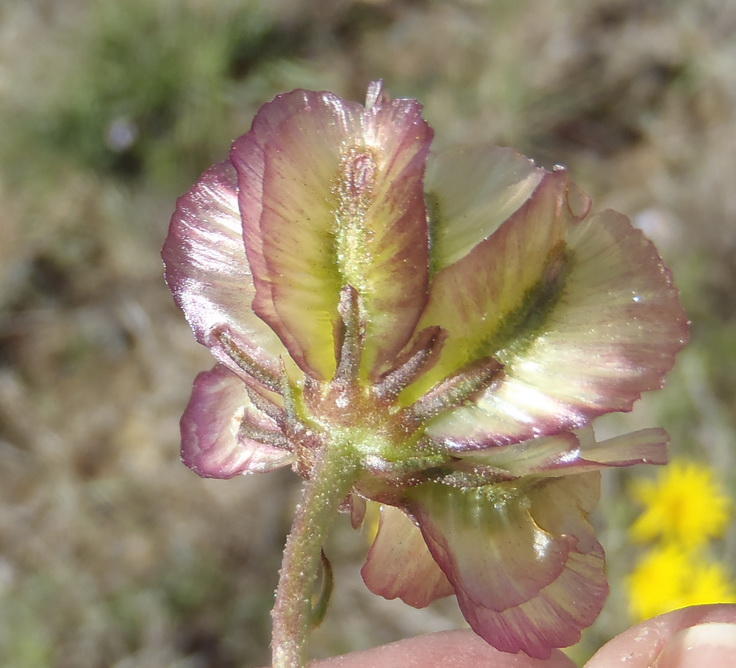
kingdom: Plantae
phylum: Tracheophyta
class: Magnoliopsida
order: Asterales
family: Asteraceae
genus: Osteospermum
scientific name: Osteospermum scariosum
